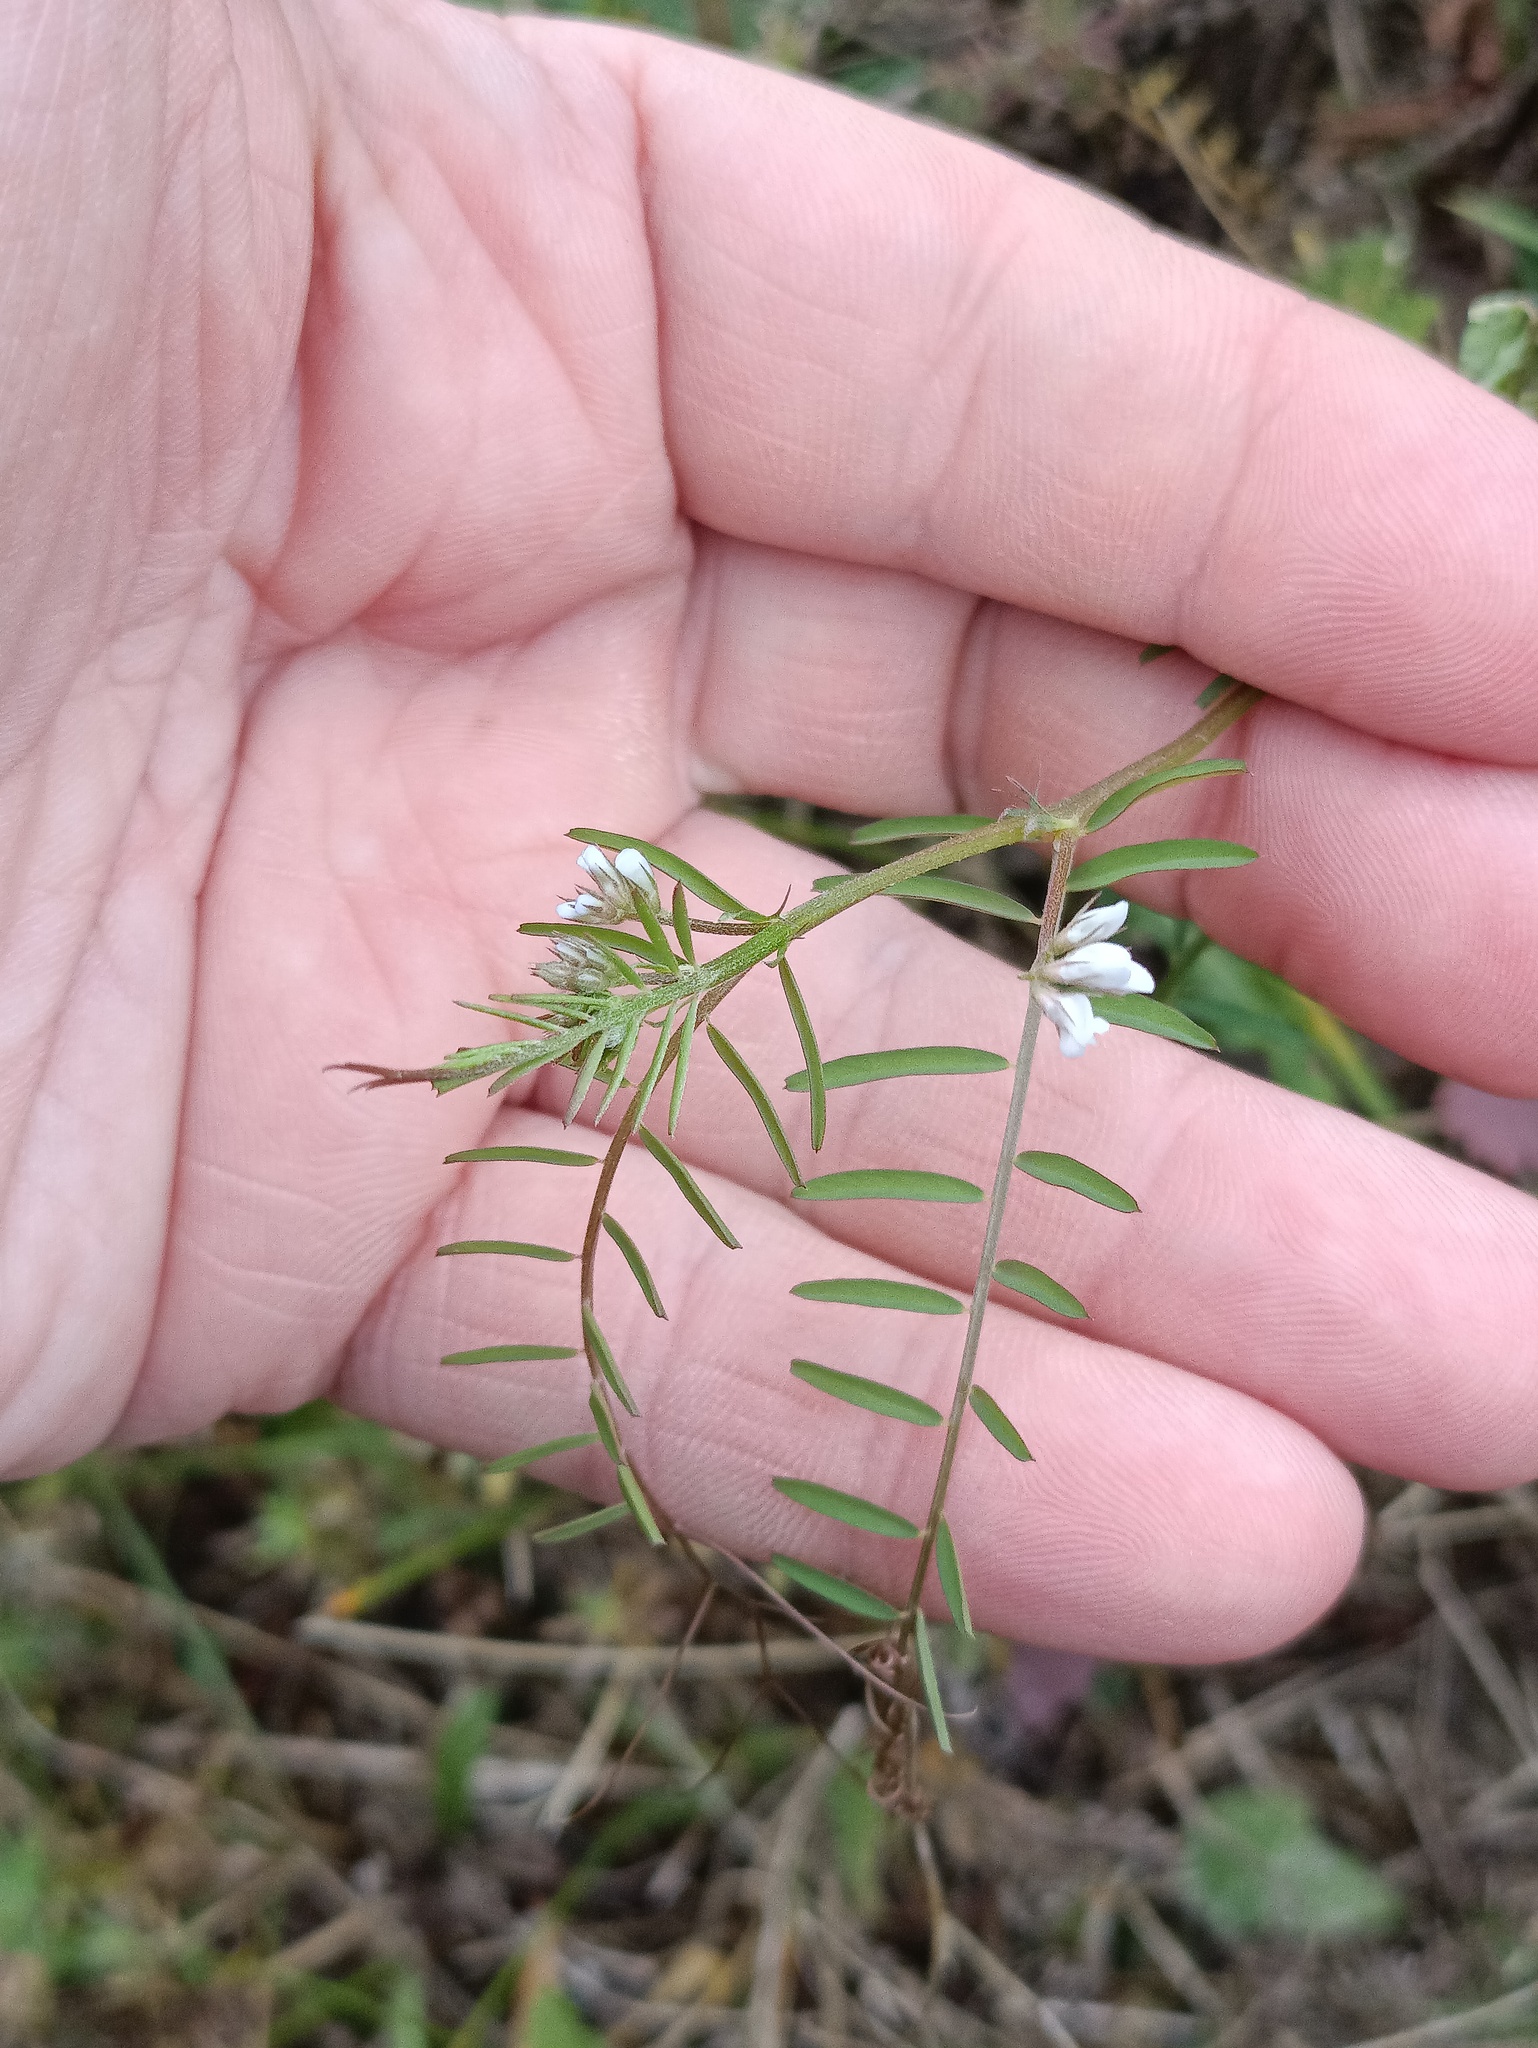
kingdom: Plantae
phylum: Tracheophyta
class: Magnoliopsida
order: Fabales
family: Fabaceae
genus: Vicia
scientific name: Vicia hirsuta
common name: Tiny vetch
